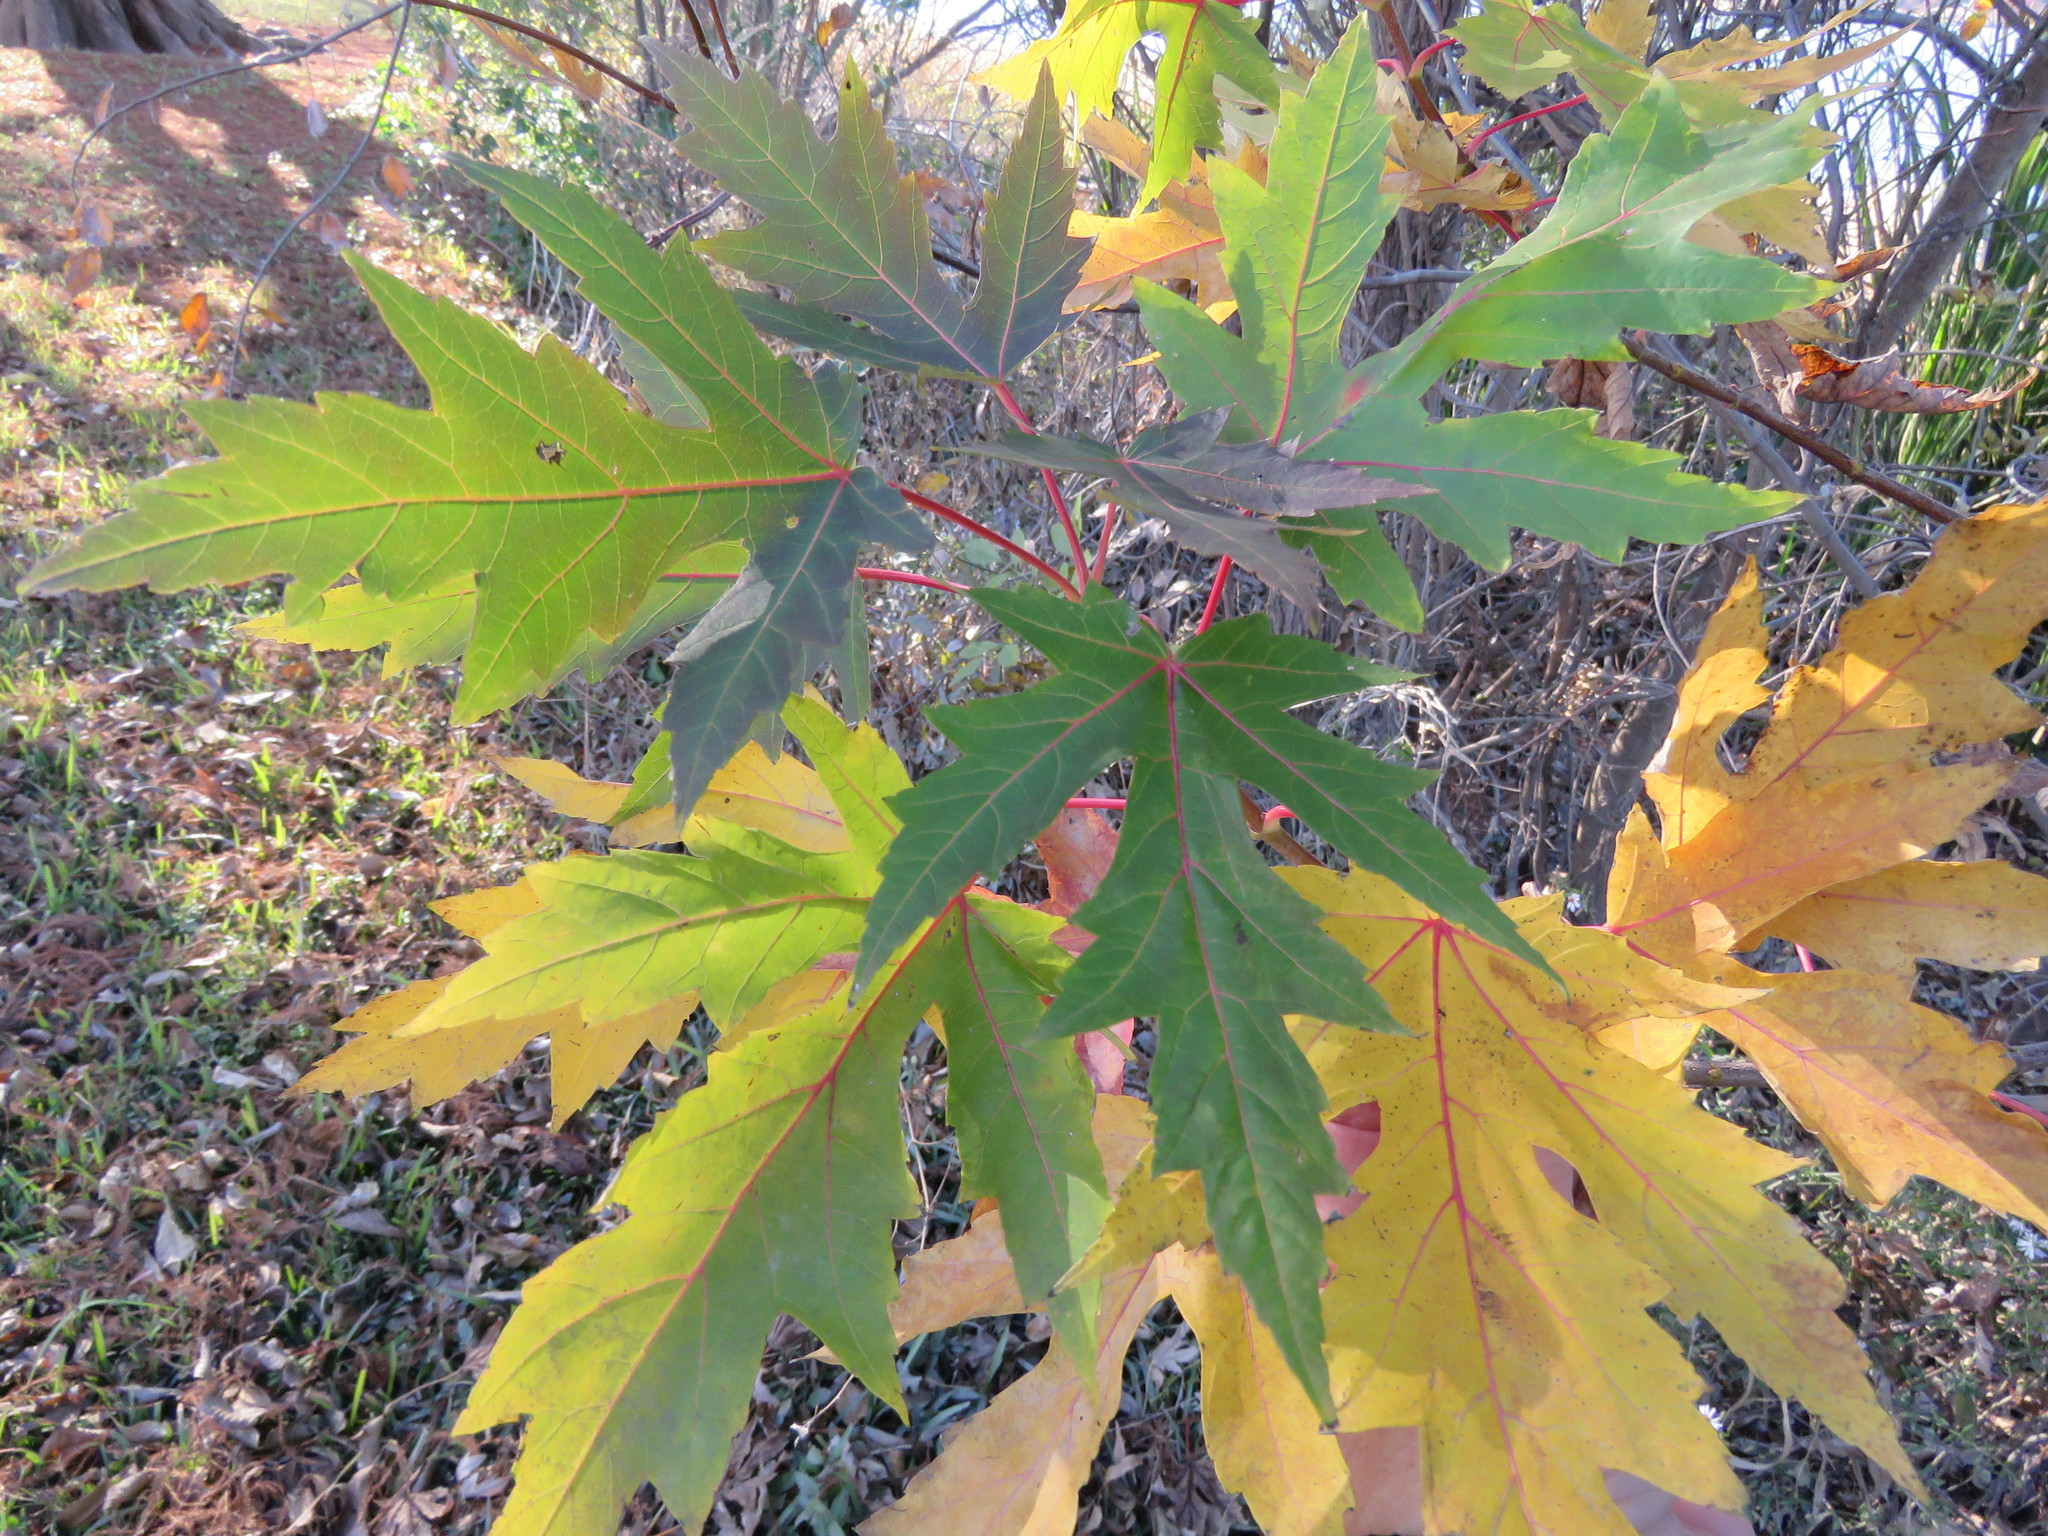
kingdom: Plantae
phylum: Tracheophyta
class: Magnoliopsida
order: Sapindales
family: Sapindaceae
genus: Acer
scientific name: Acer saccharinum
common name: Silver maple
